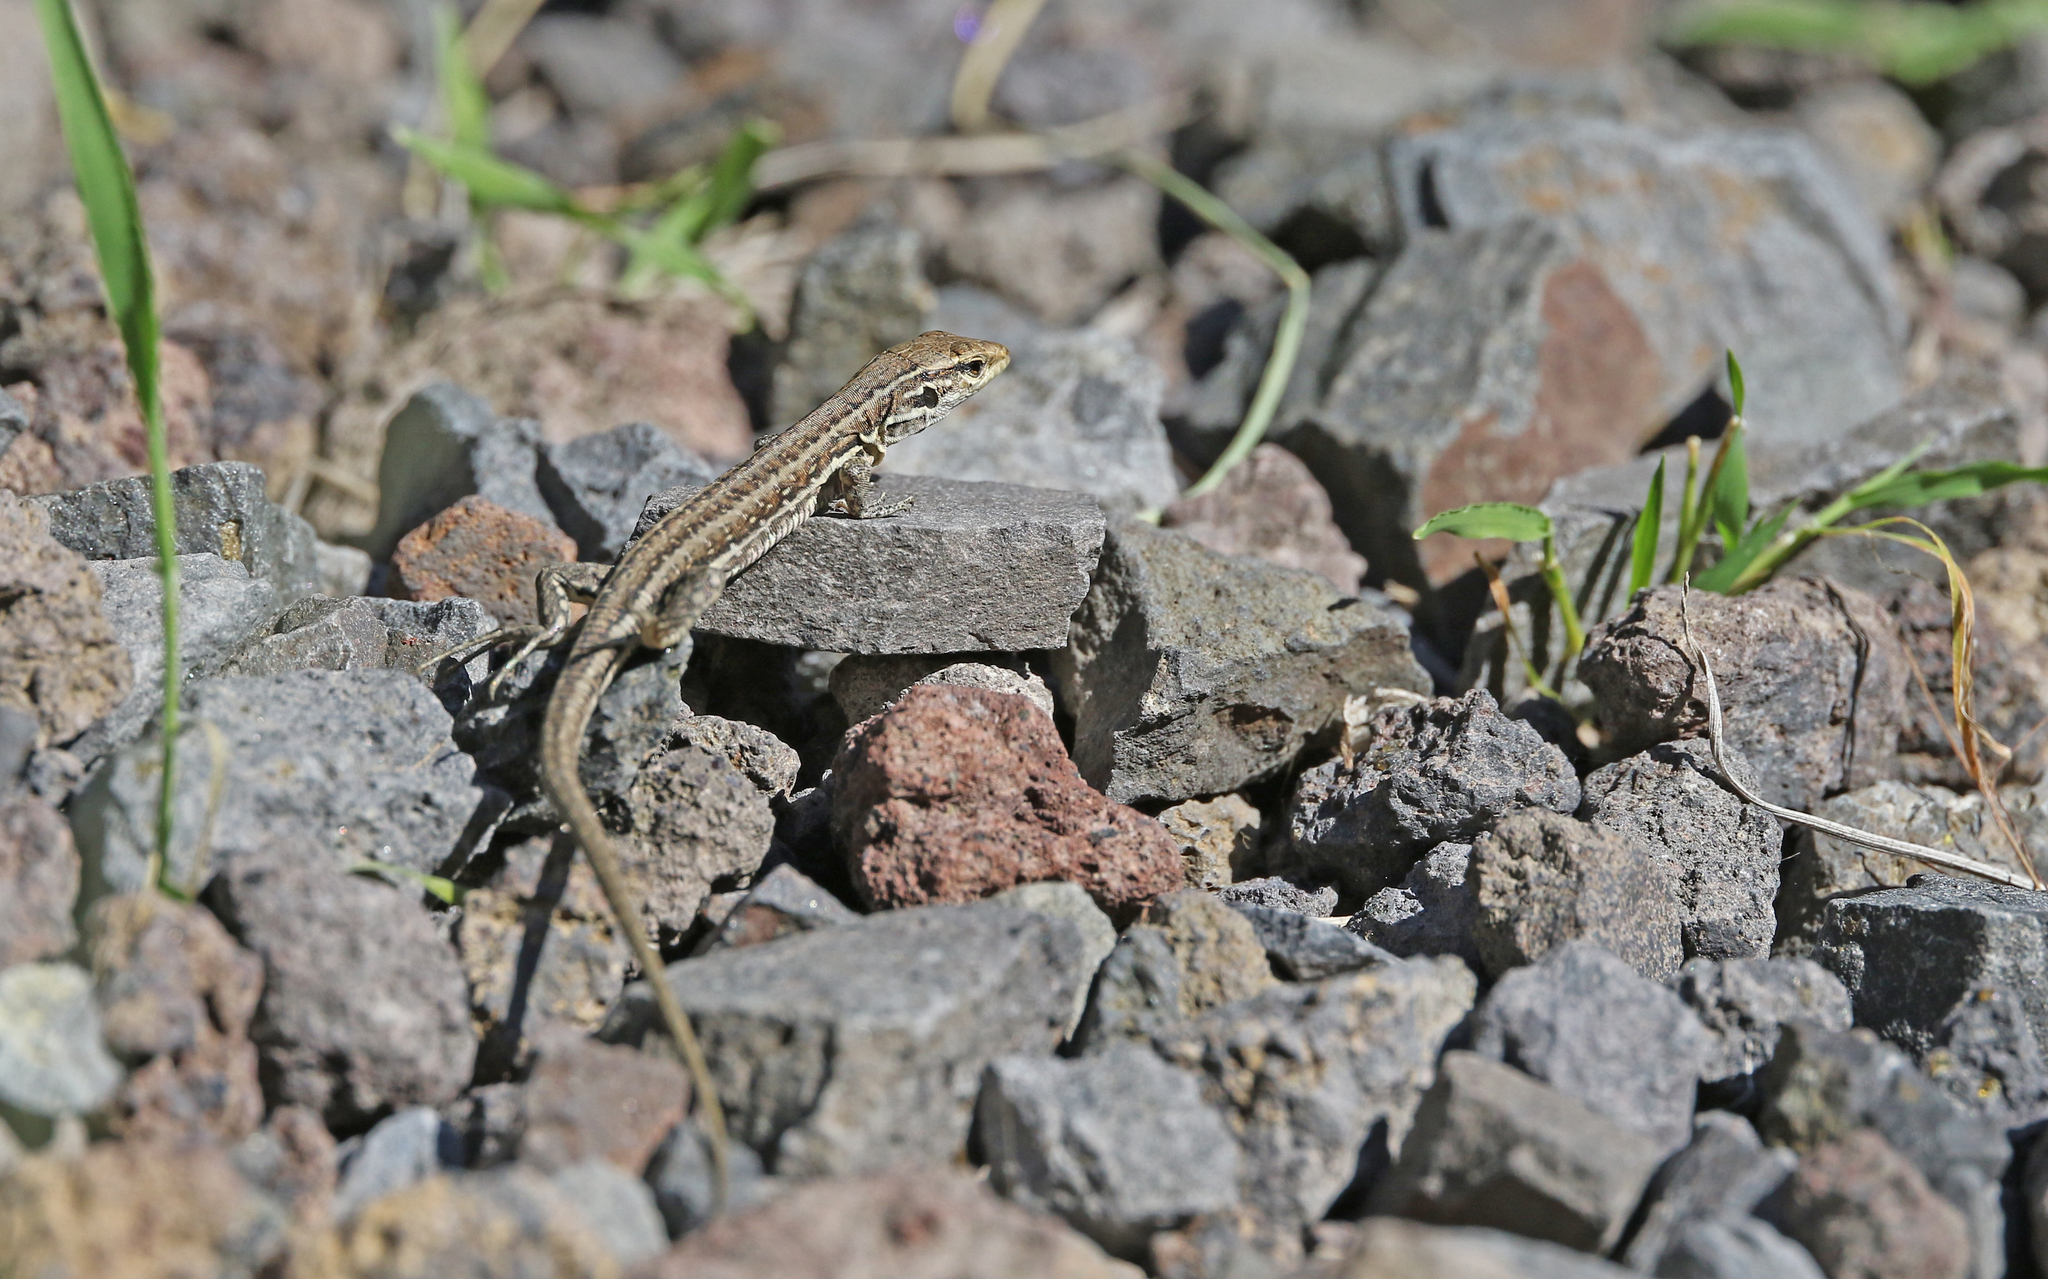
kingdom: Animalia
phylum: Chordata
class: Squamata
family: Lacertidae
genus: Gallotia
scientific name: Gallotia galloti
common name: Gallot's lizard
